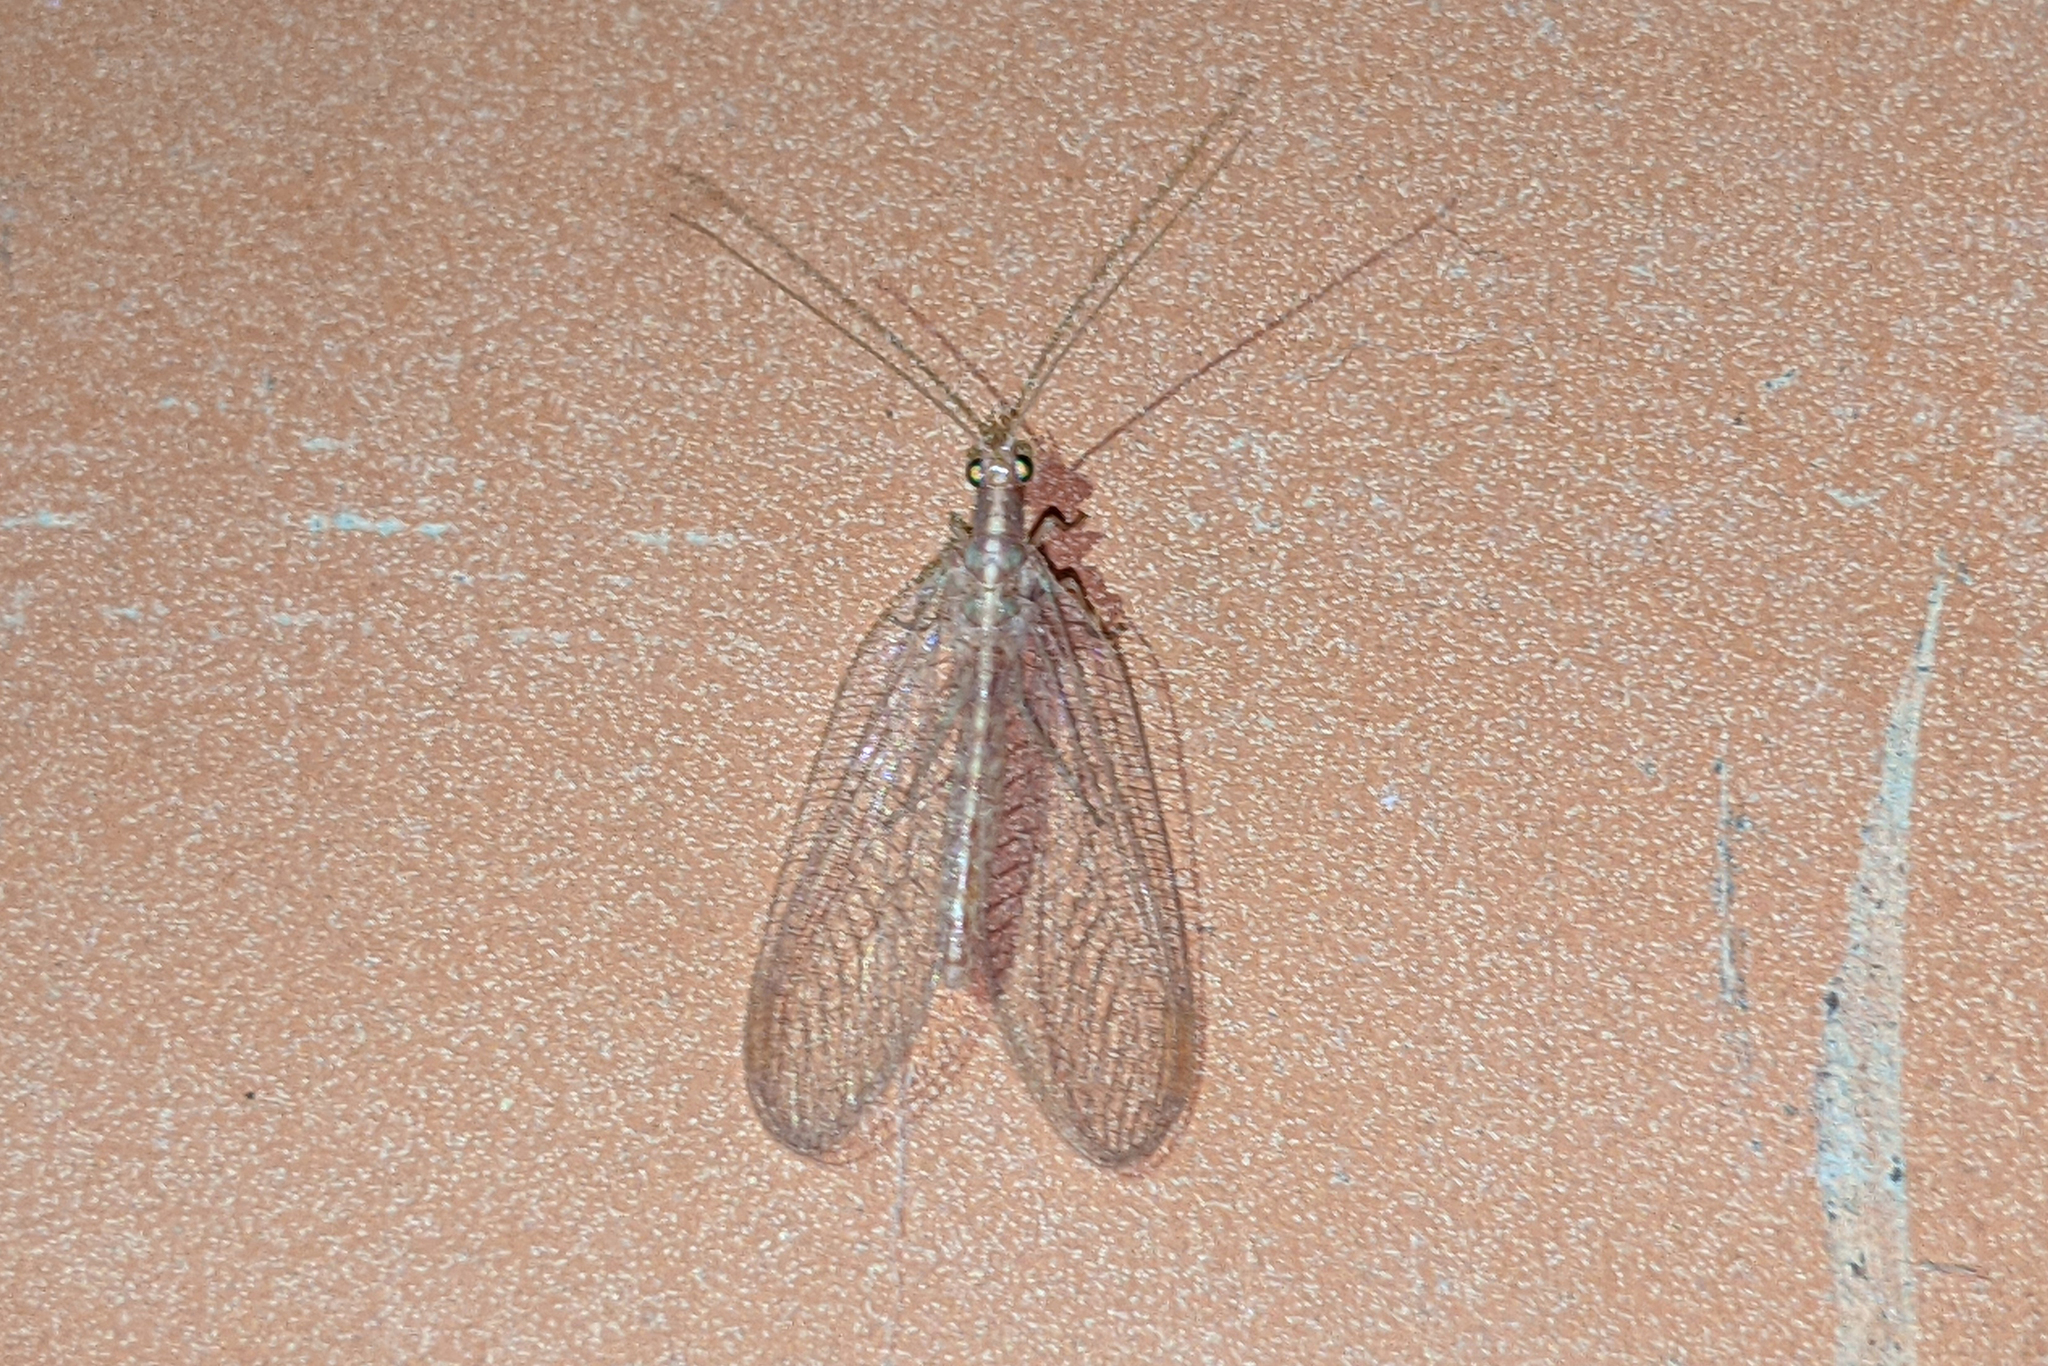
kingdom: Animalia
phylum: Arthropoda
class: Insecta
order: Neuroptera
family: Chrysopidae
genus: Chrysoperla
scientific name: Chrysoperla
